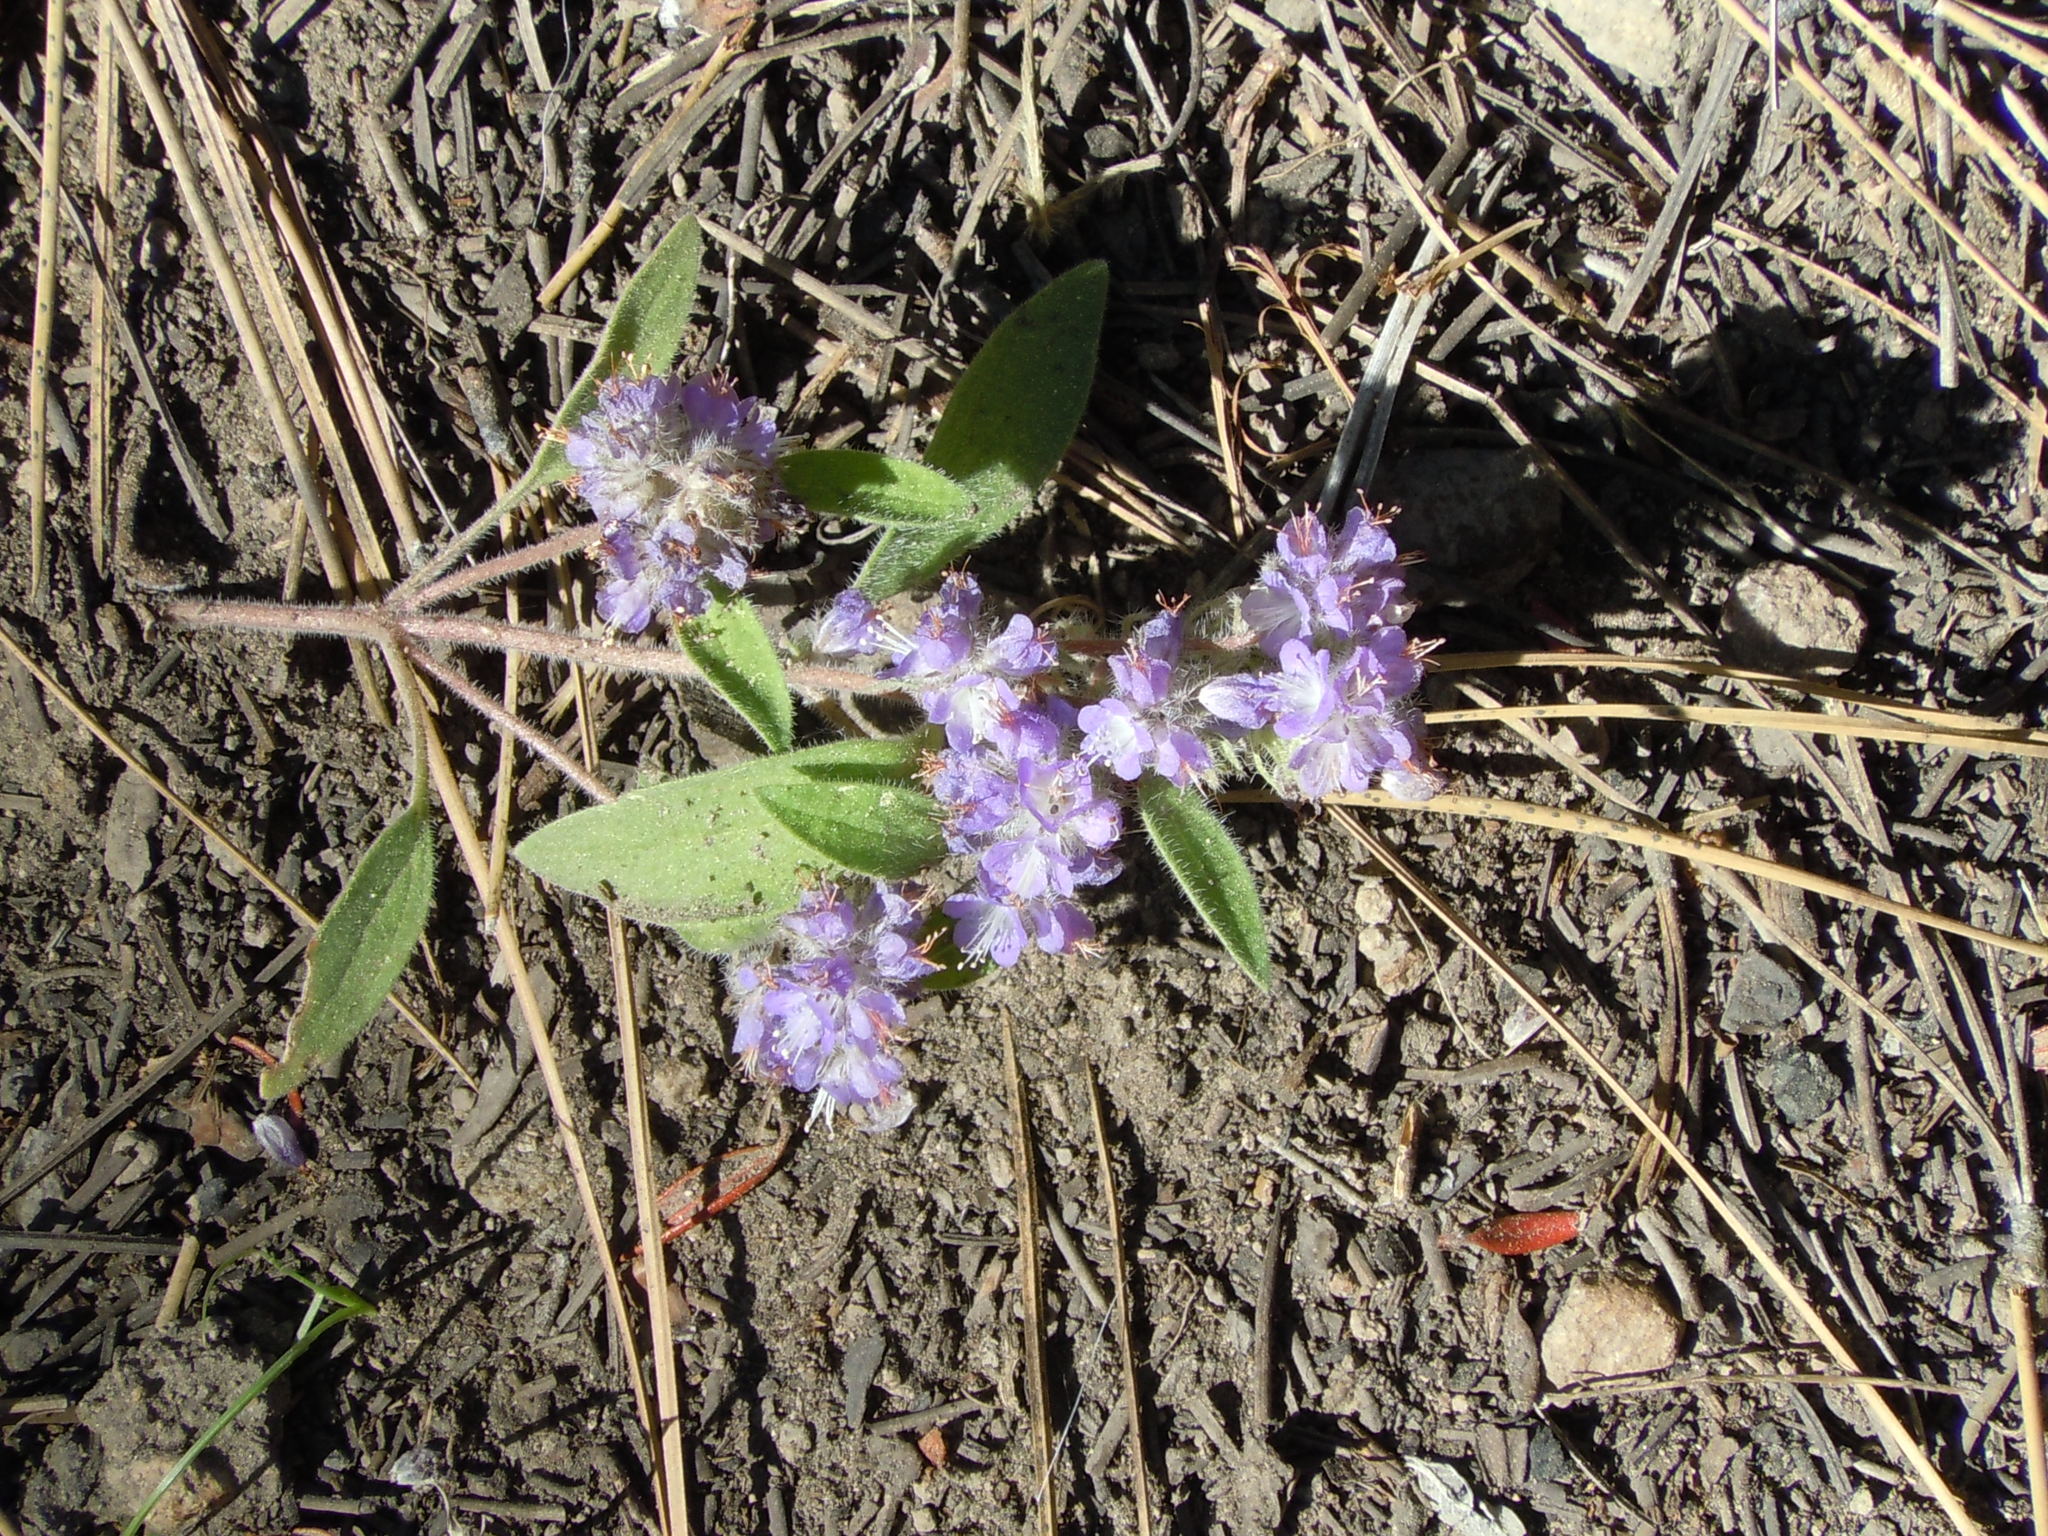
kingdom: Plantae
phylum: Tracheophyta
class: Magnoliopsida
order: Boraginales
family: Hydrophyllaceae
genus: Phacelia
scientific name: Phacelia humilis
